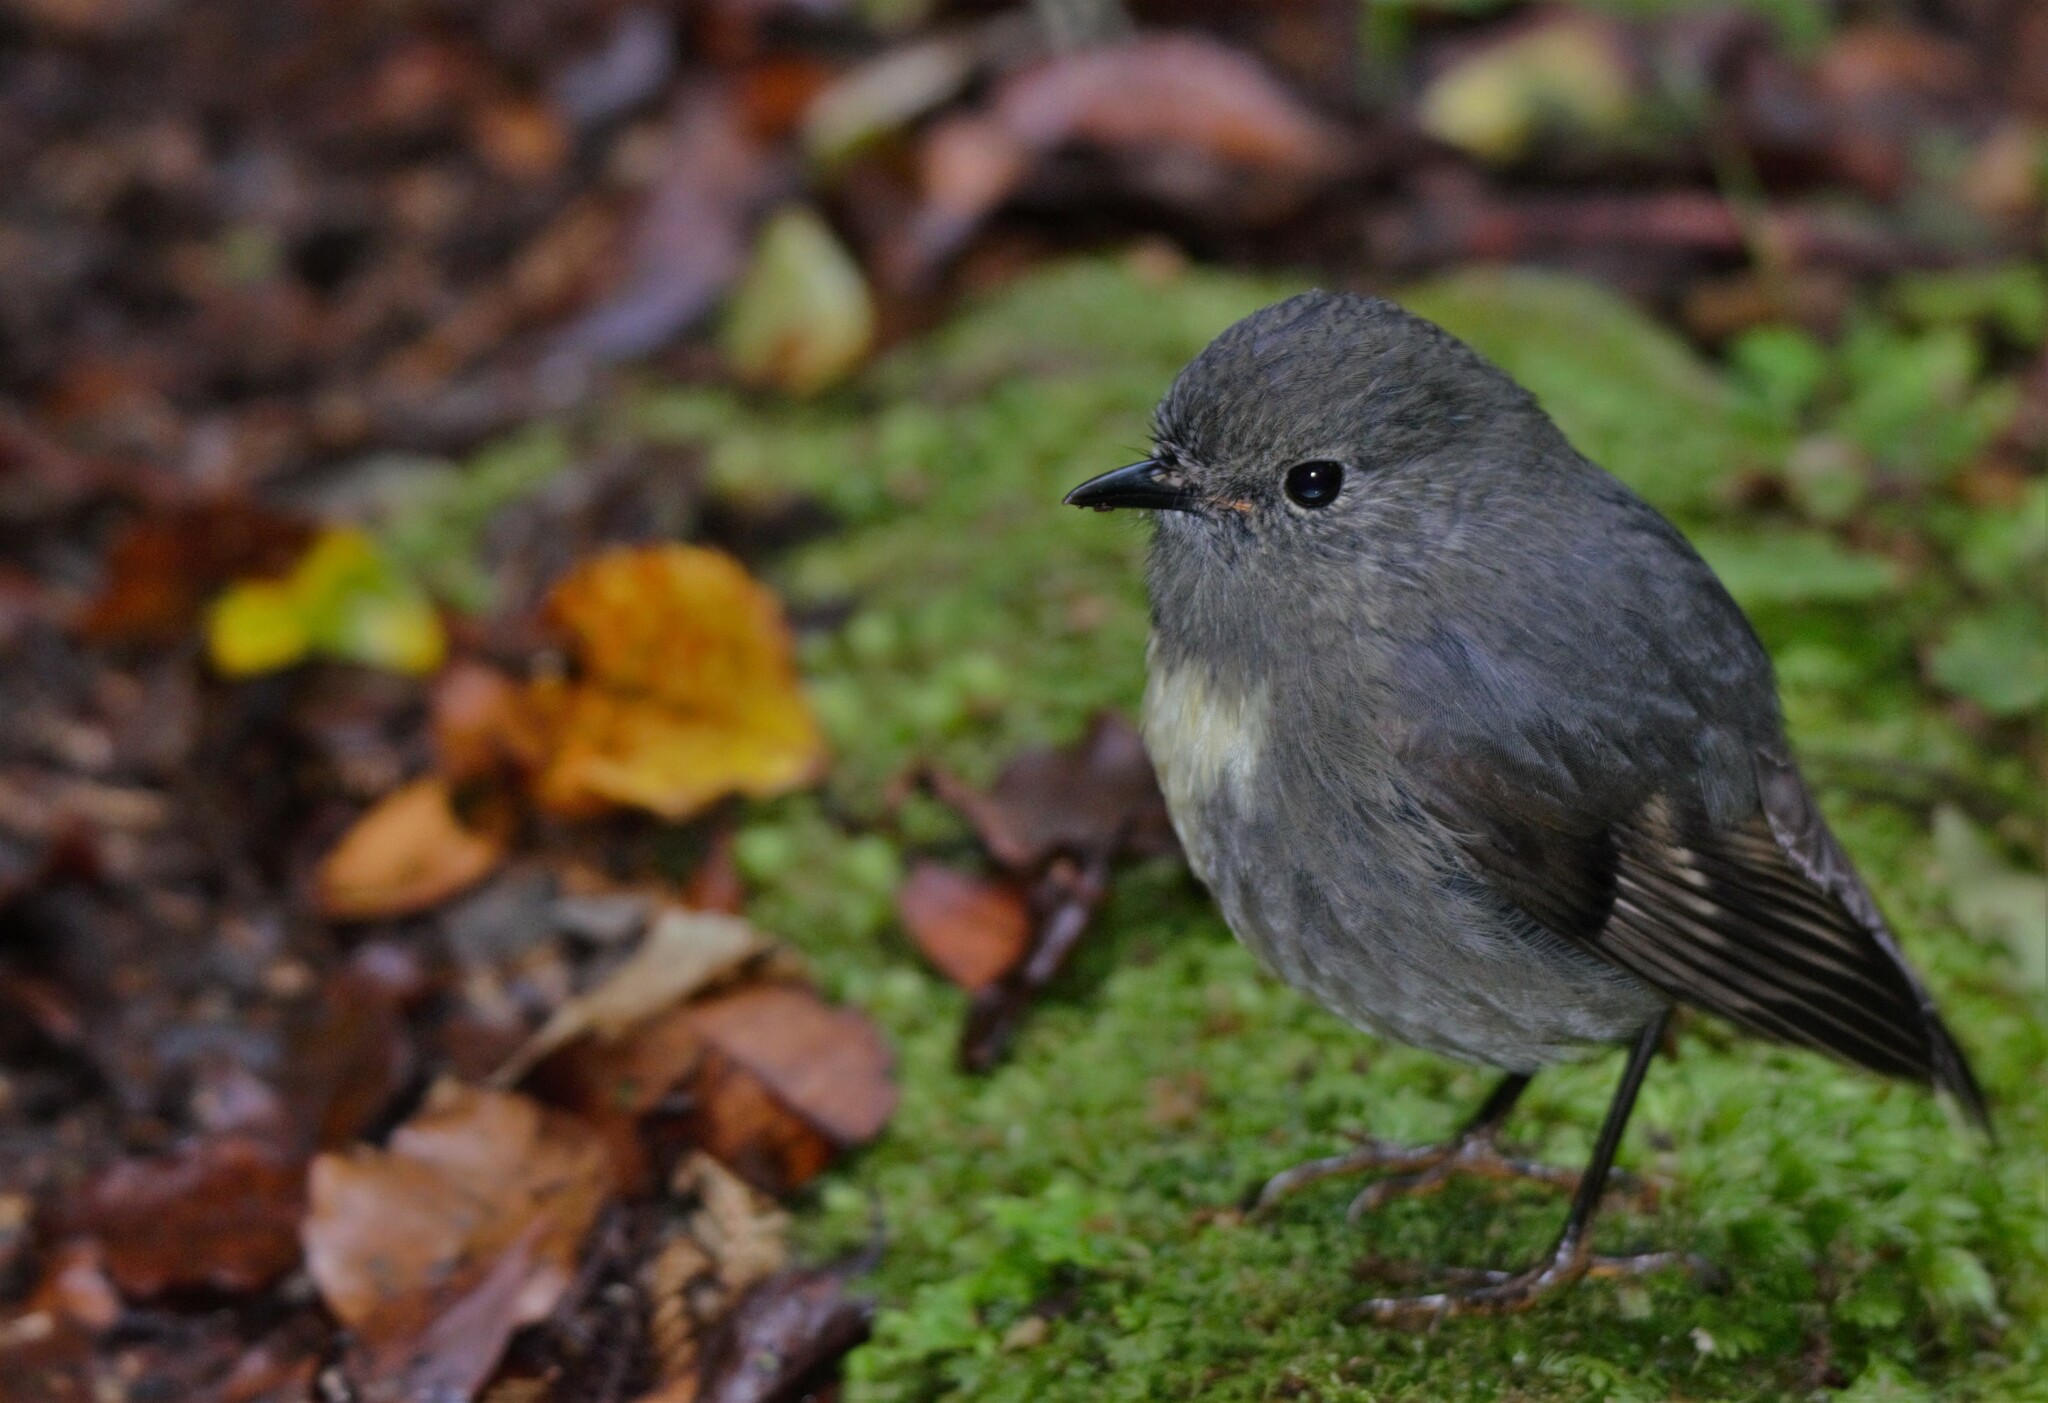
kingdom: Animalia
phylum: Chordata
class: Aves
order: Passeriformes
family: Petroicidae
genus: Petroica
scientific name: Petroica australis
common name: New zealand robin
